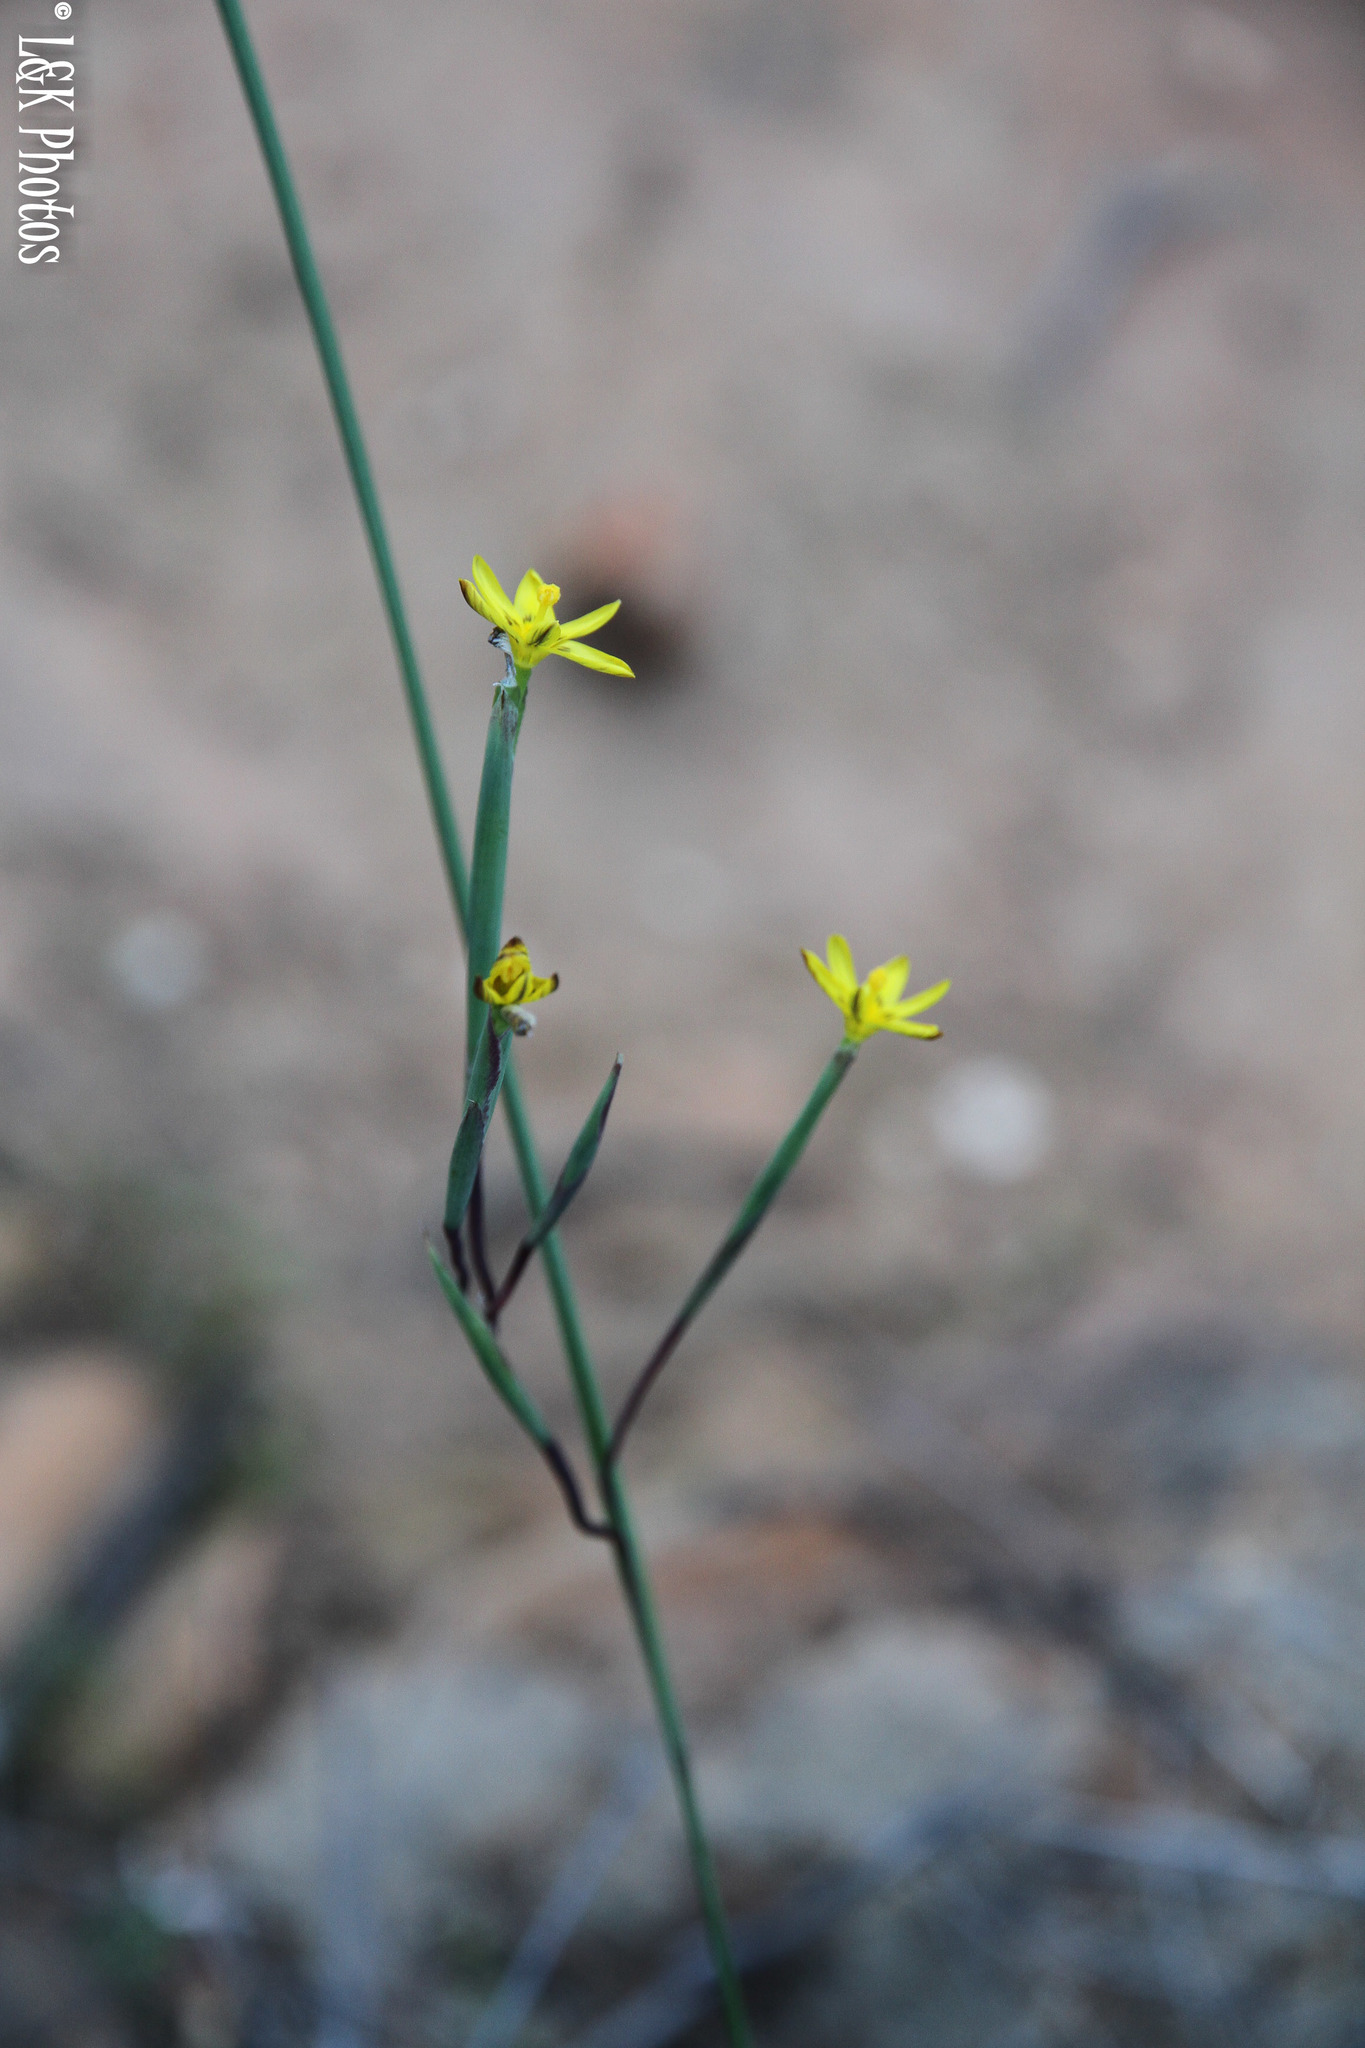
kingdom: Plantae
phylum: Tracheophyta
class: Liliopsida
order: Asparagales
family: Iridaceae
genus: Moraea
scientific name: Moraea demissa
